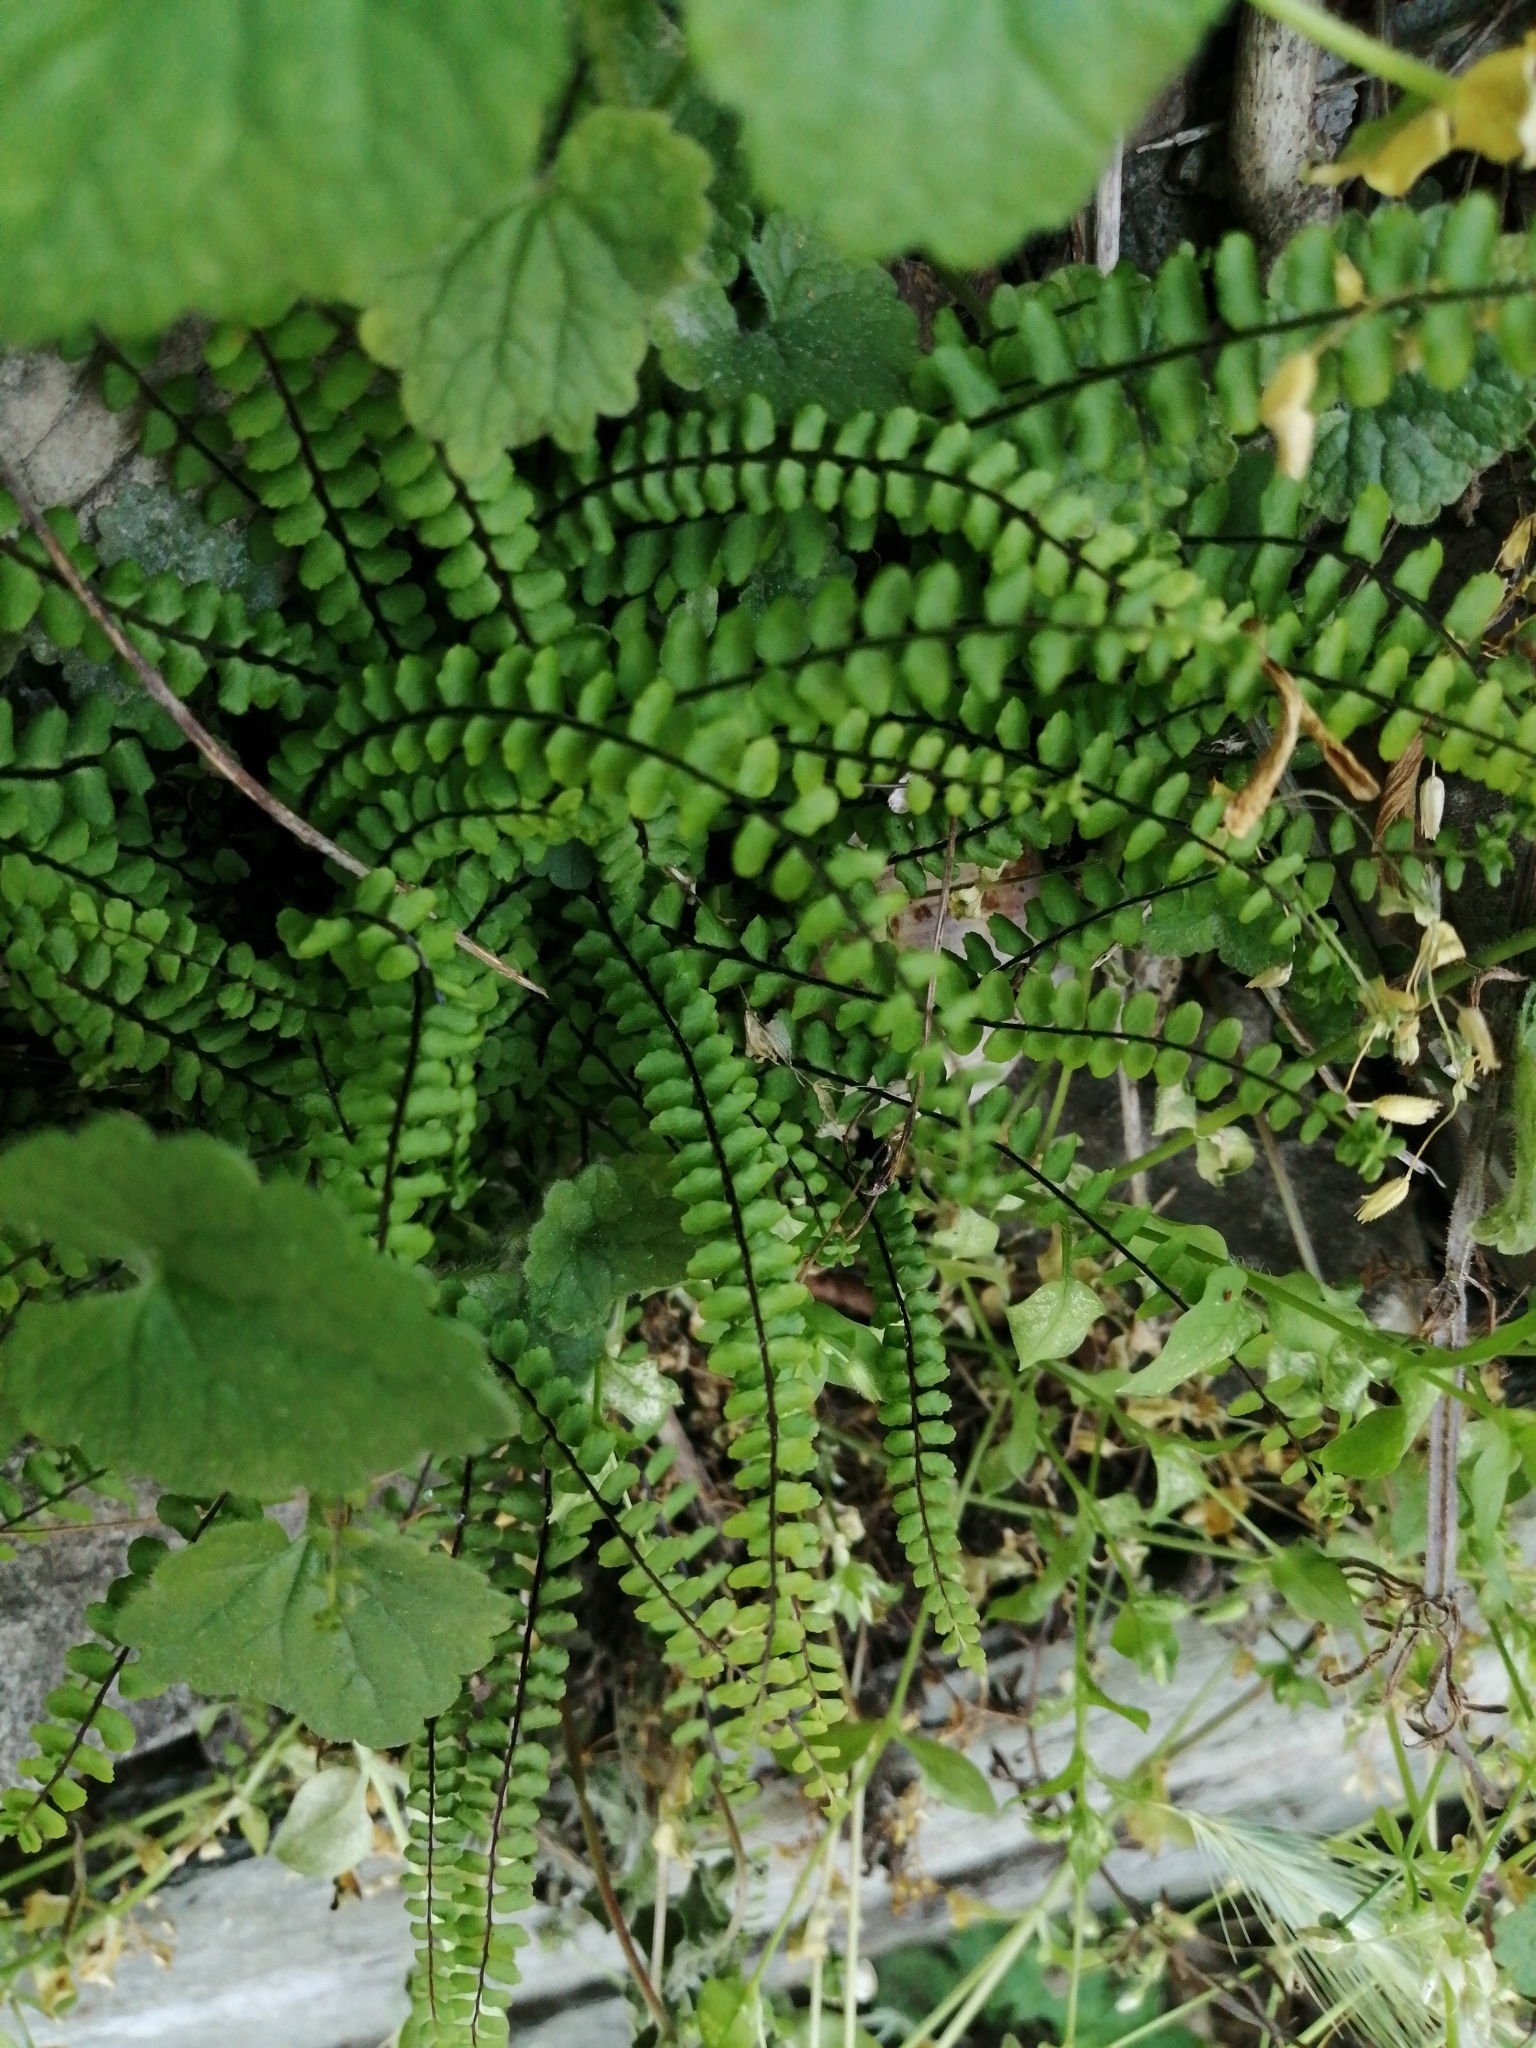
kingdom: Plantae
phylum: Tracheophyta
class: Polypodiopsida
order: Polypodiales
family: Aspleniaceae
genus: Asplenium
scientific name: Asplenium trichomanes
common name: Maidenhair spleenwort
